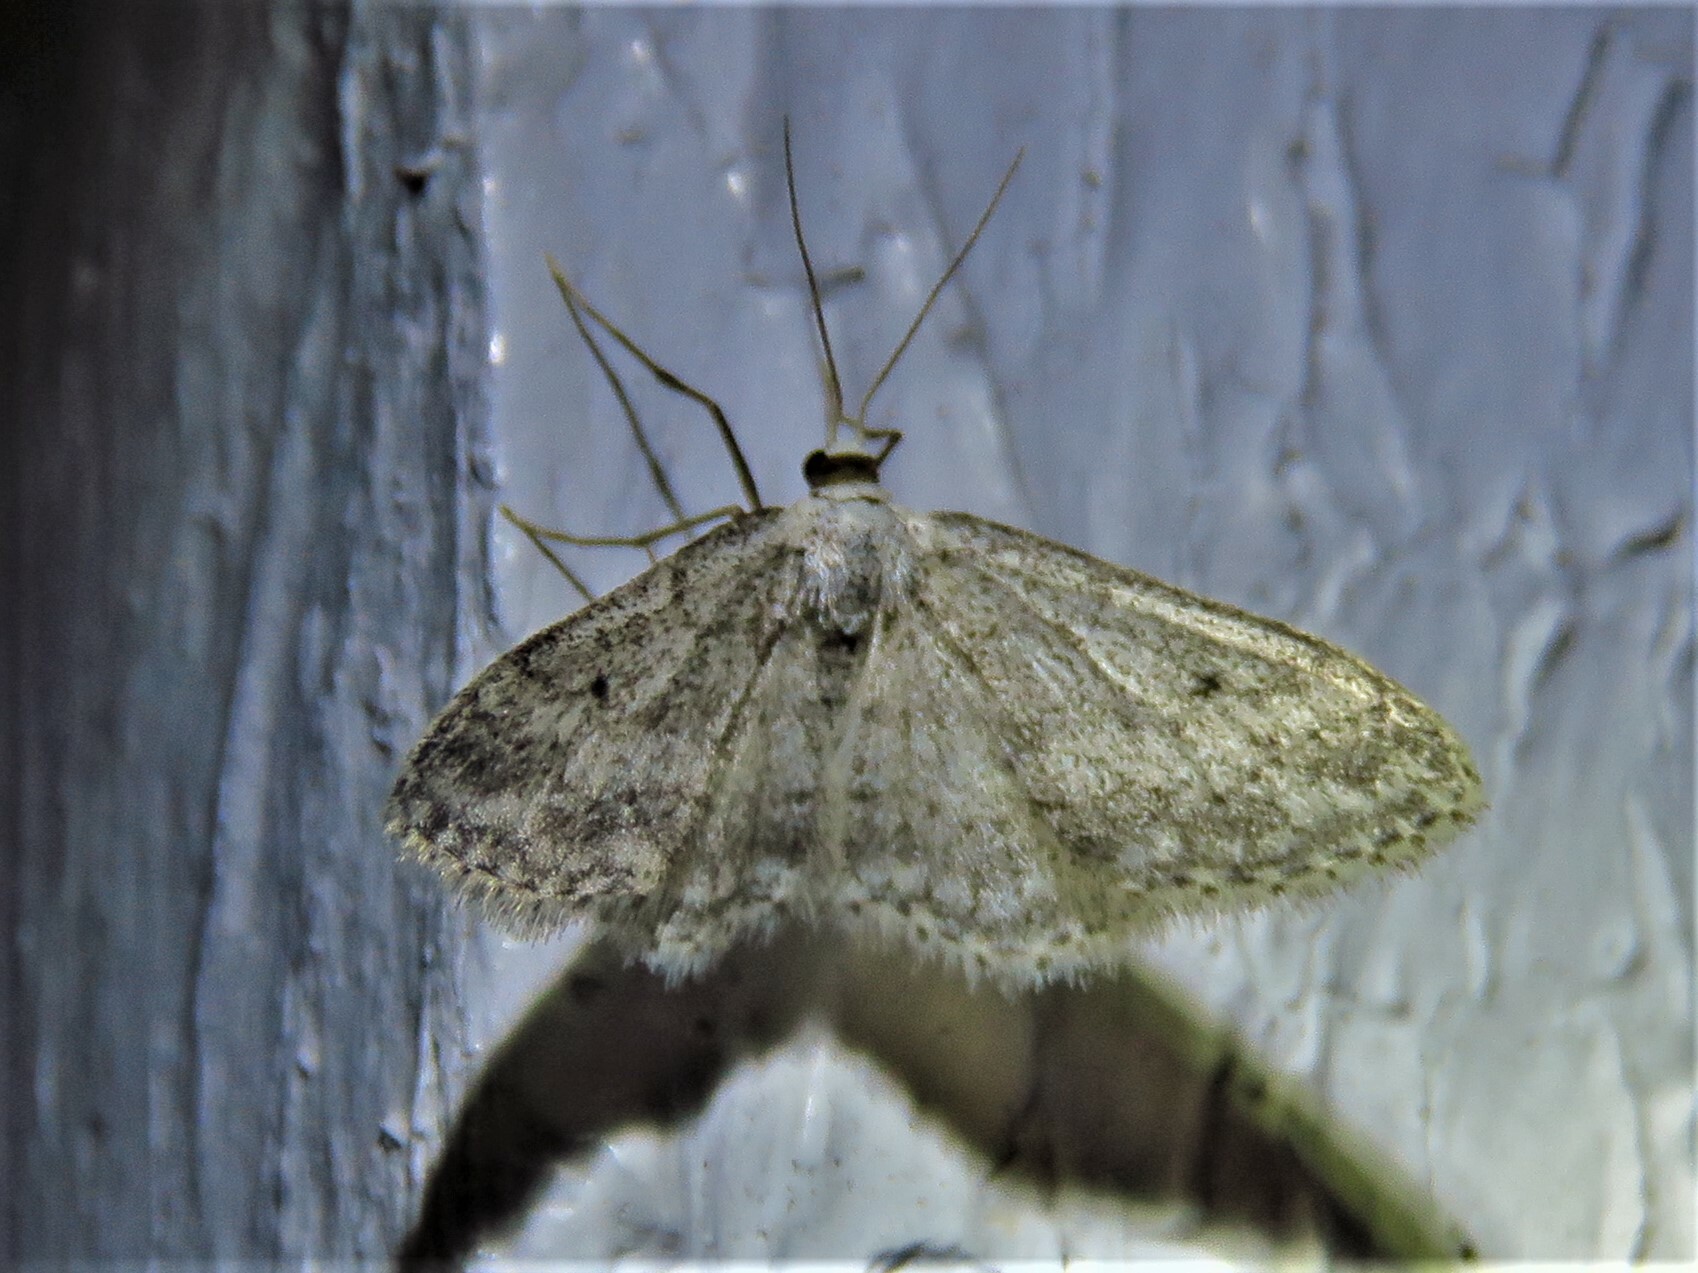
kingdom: Animalia
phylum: Arthropoda
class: Insecta
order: Lepidoptera
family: Geometridae
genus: Idaea
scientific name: Idaea seriata
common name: Small dusty wave
